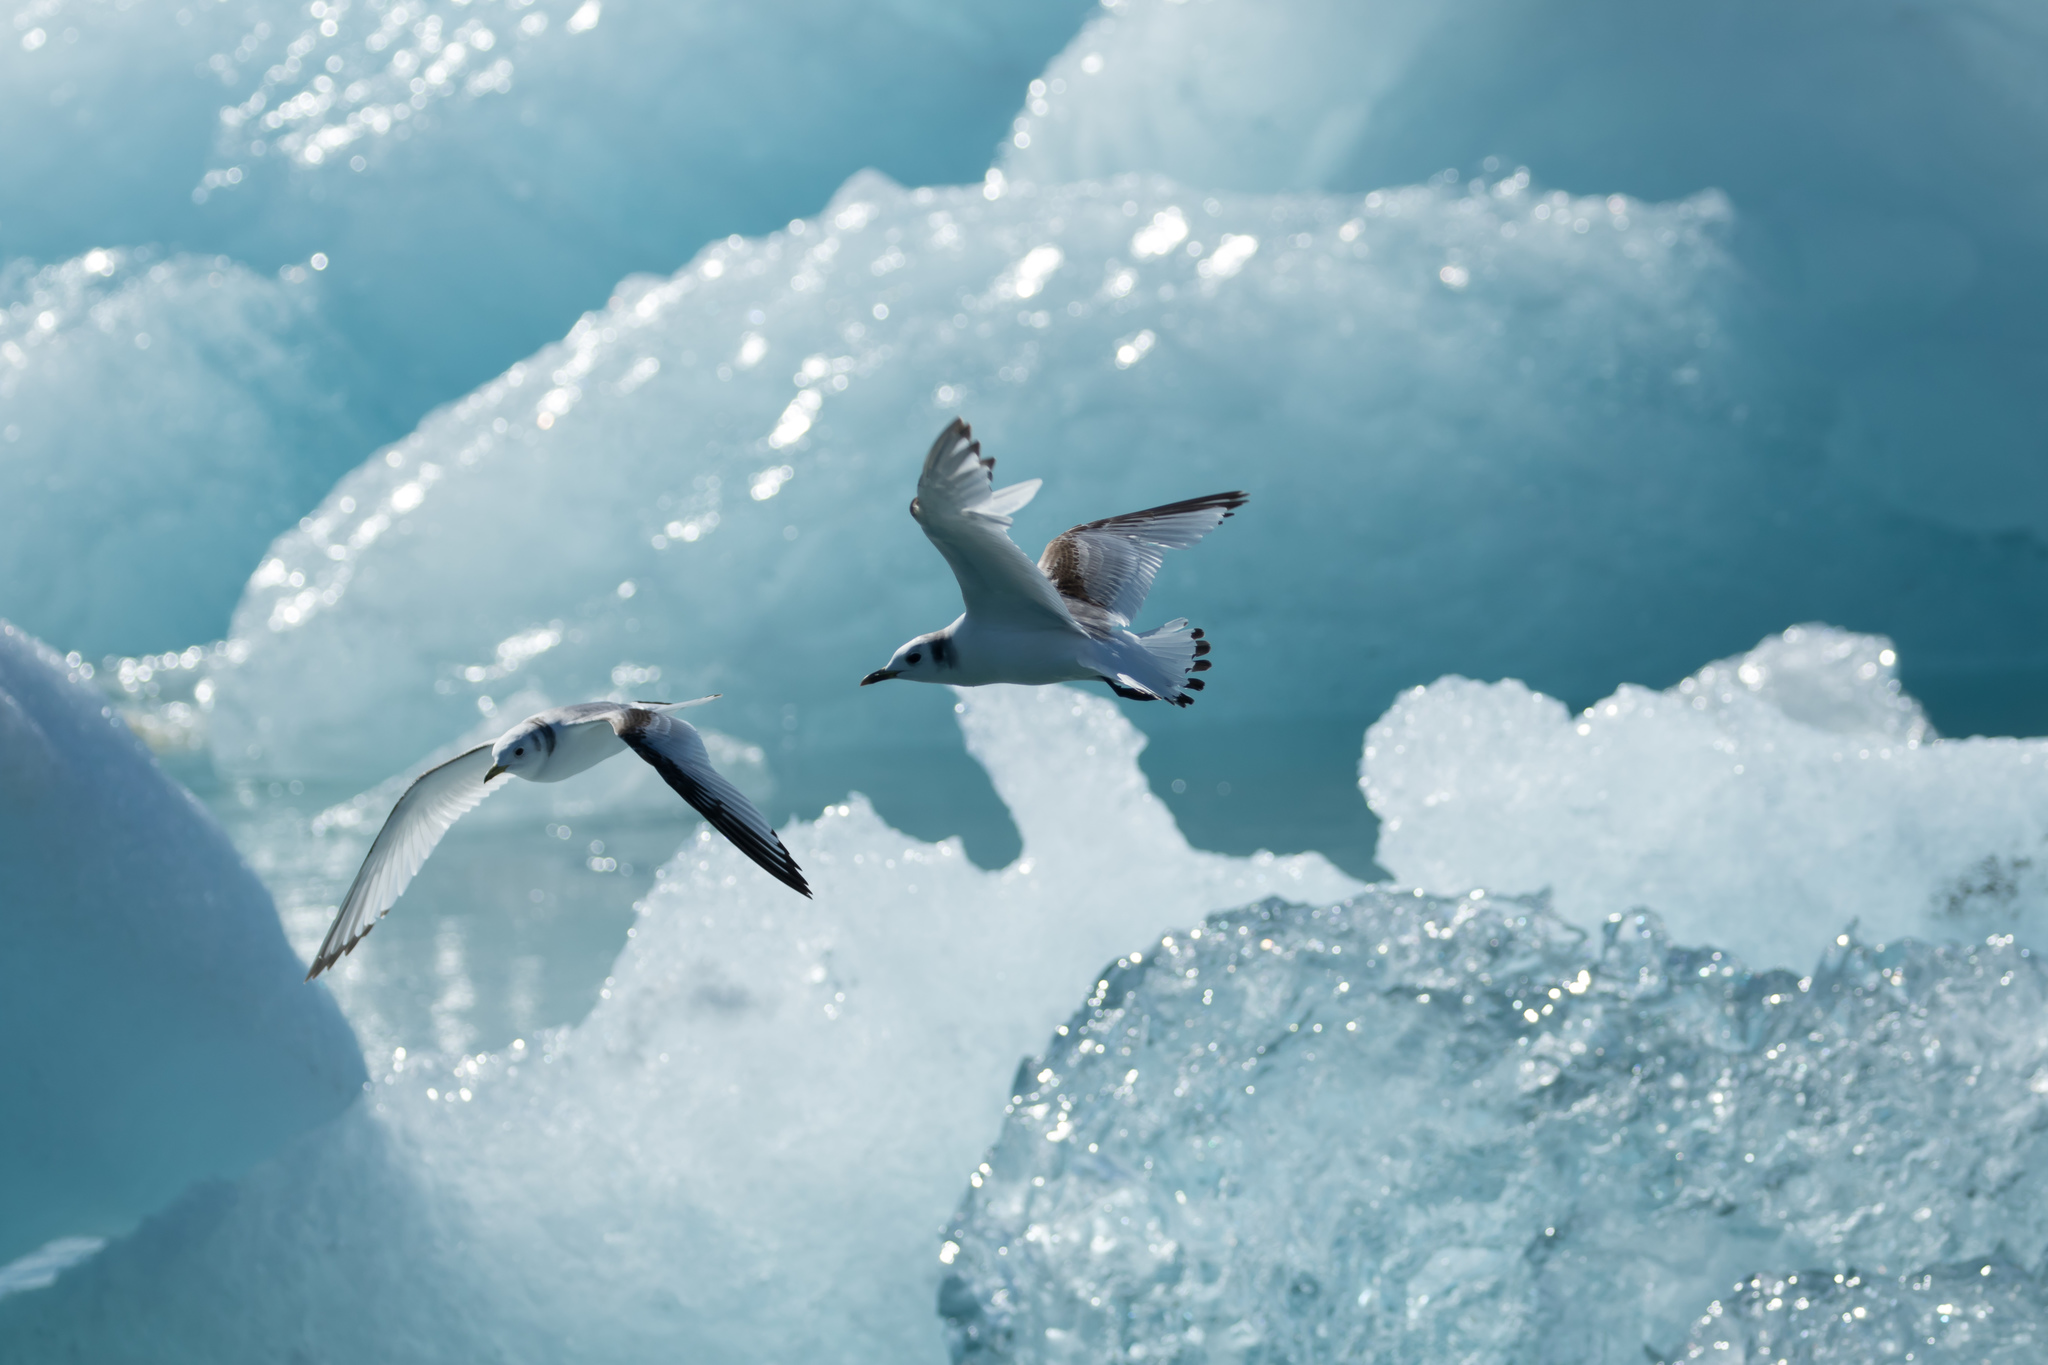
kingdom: Animalia
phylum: Chordata
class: Aves
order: Charadriiformes
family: Laridae
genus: Rissa
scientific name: Rissa tridactyla
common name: Black-legged kittiwake
